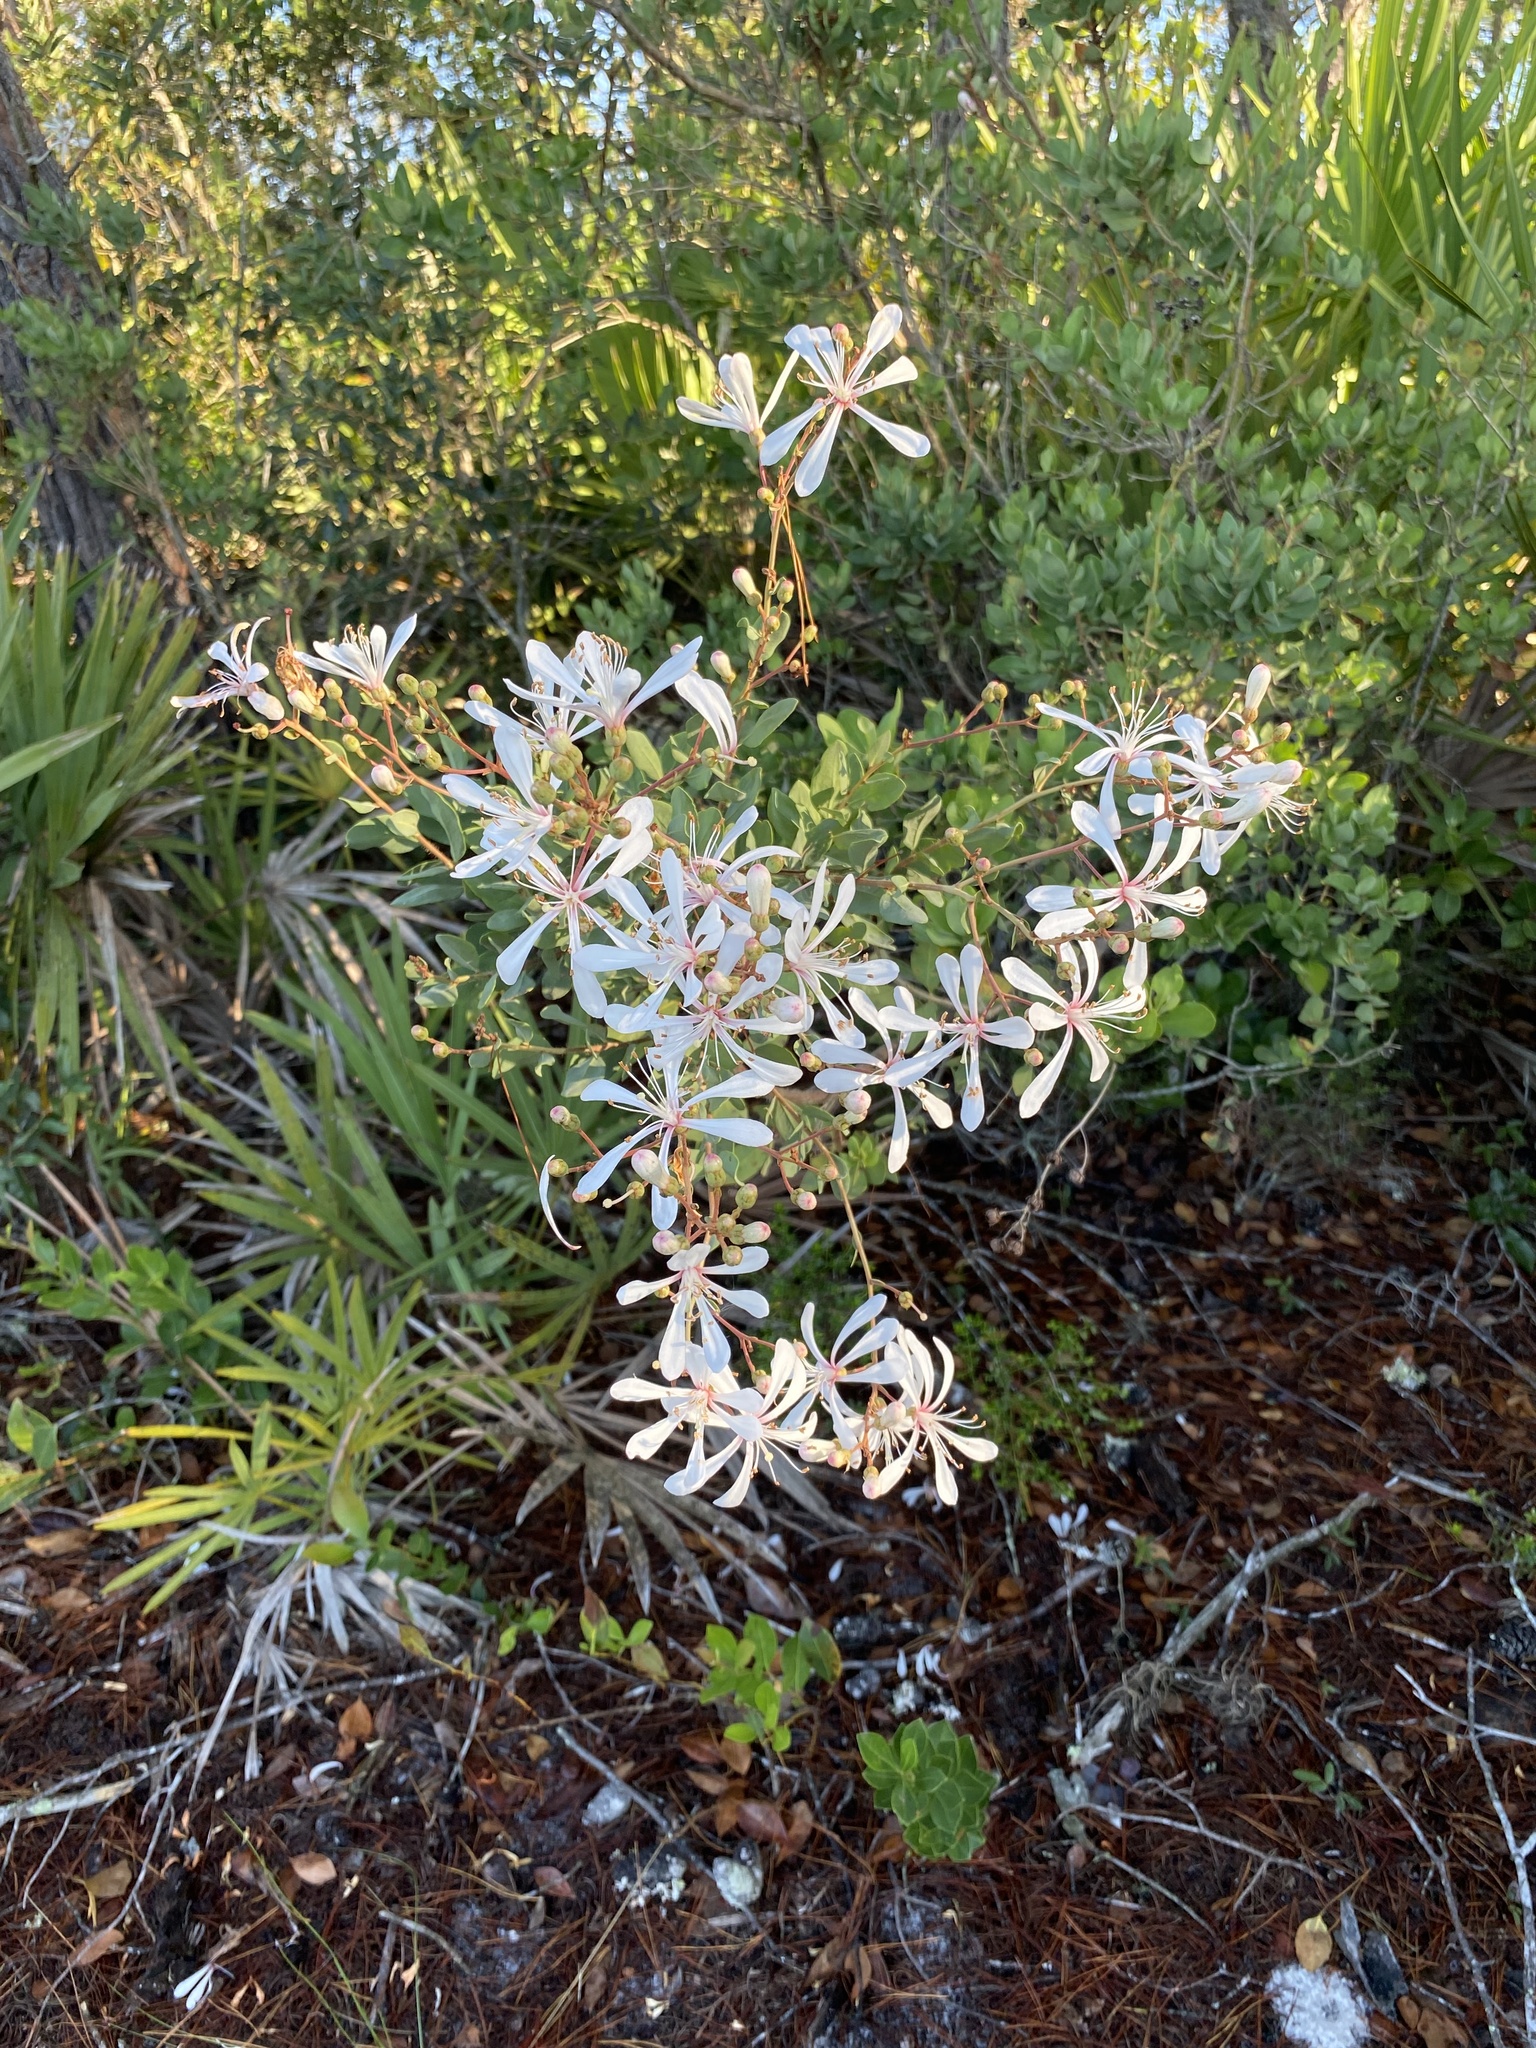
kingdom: Plantae
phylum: Tracheophyta
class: Magnoliopsida
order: Ericales
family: Ericaceae
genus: Bejaria
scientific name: Bejaria racemosa
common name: Tarflower
